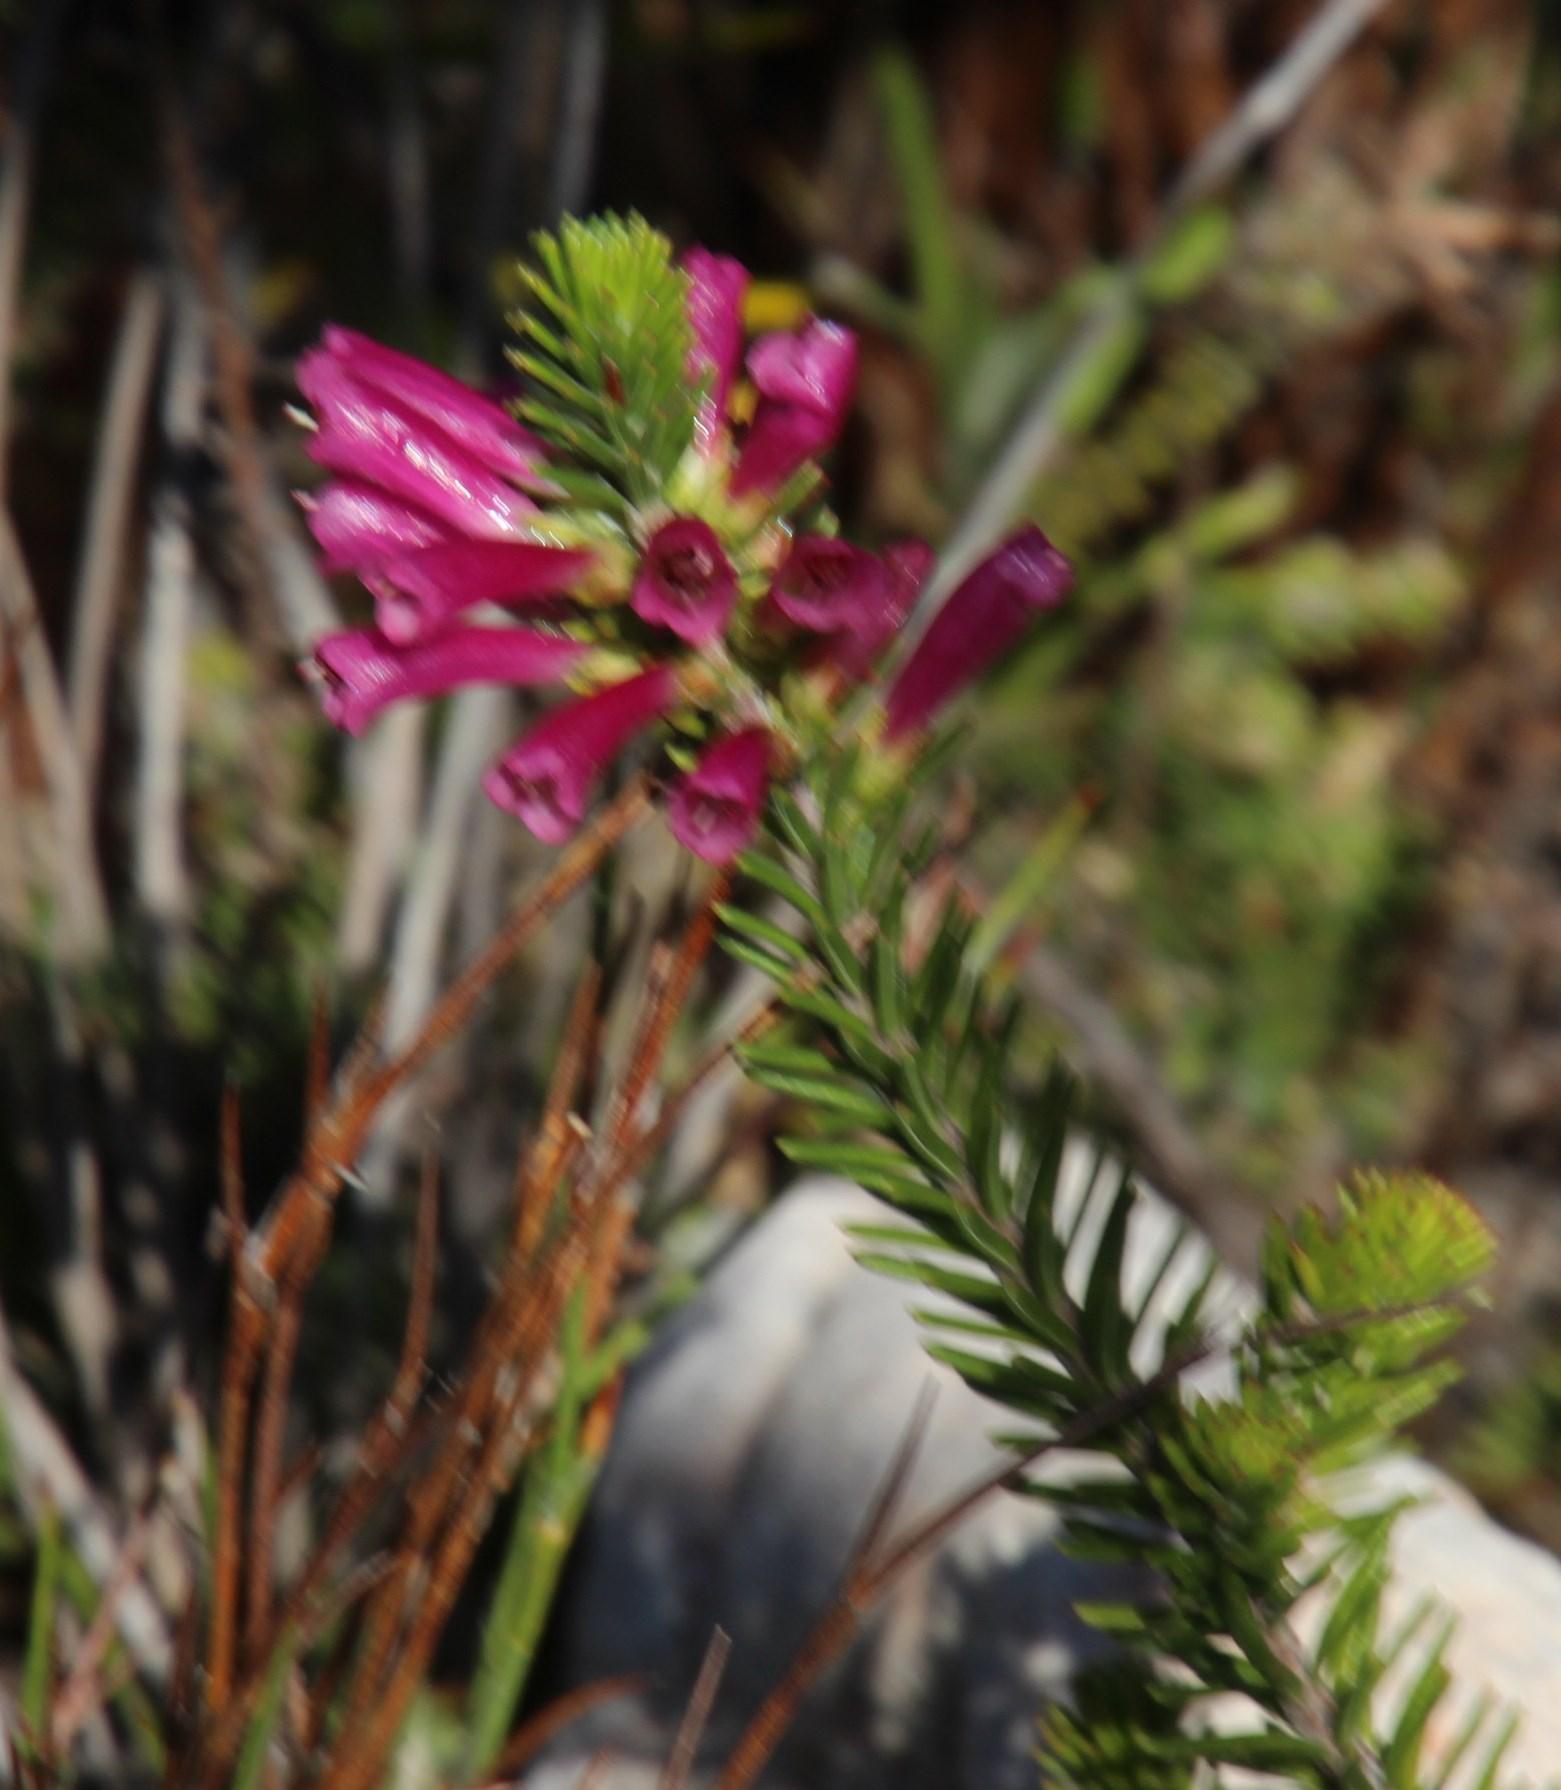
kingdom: Plantae
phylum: Tracheophyta
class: Magnoliopsida
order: Ericales
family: Ericaceae
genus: Erica
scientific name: Erica abietina
